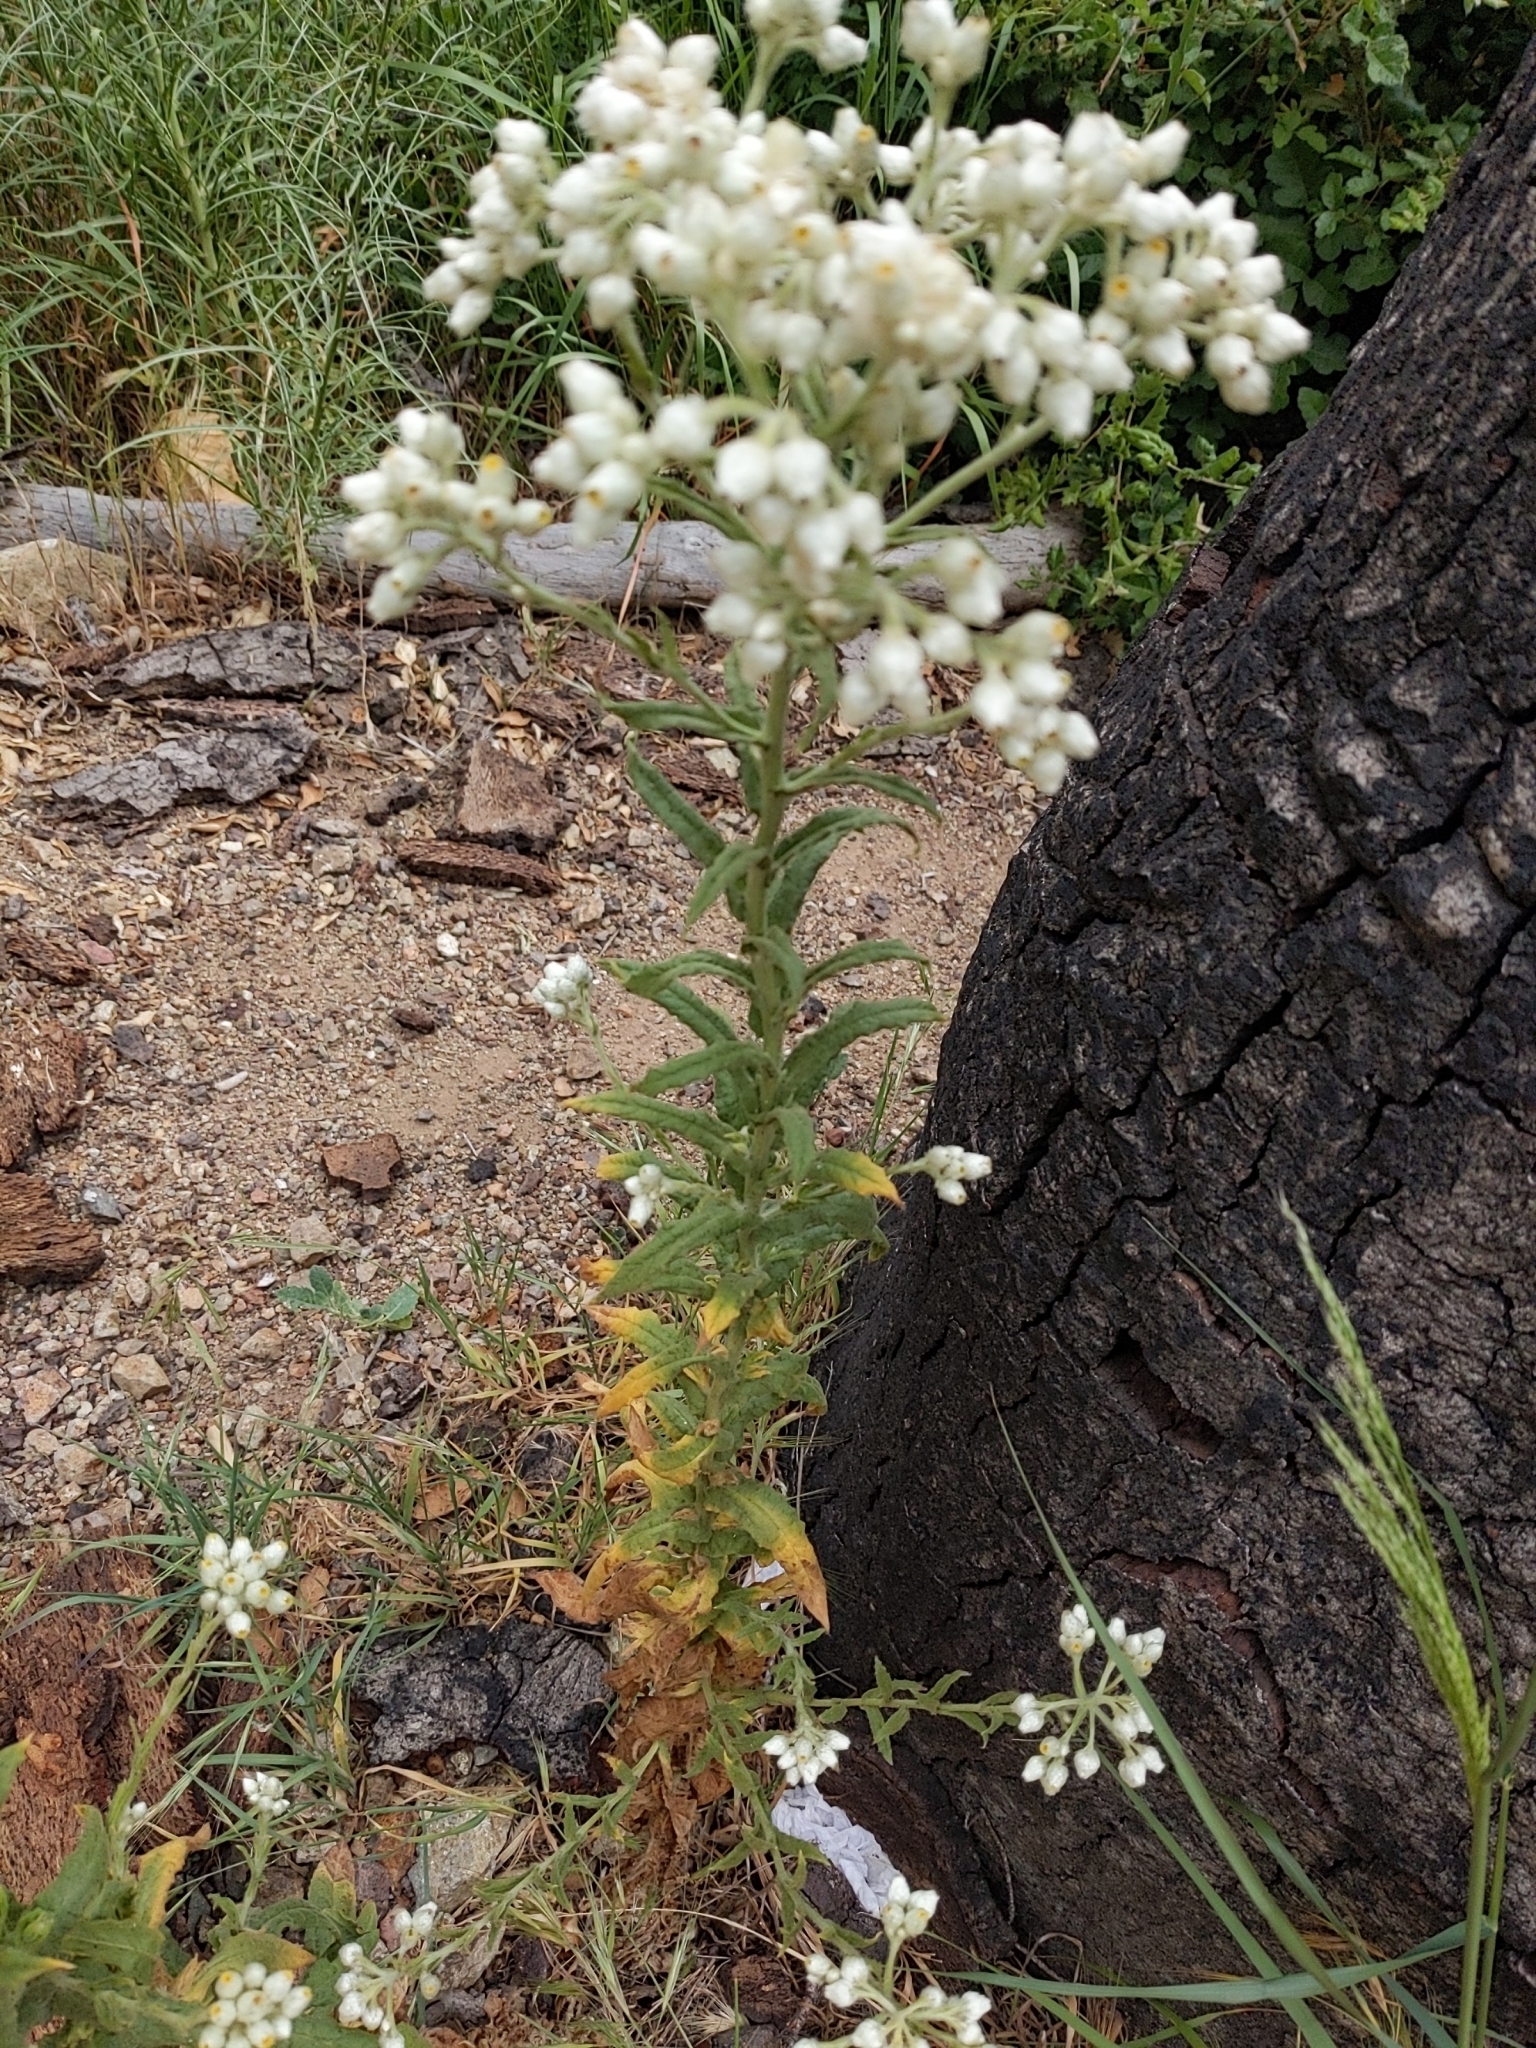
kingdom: Plantae
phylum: Tracheophyta
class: Magnoliopsida
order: Asterales
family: Asteraceae
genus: Pseudognaphalium
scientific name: Pseudognaphalium californicum
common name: California rabbit-tobacco
